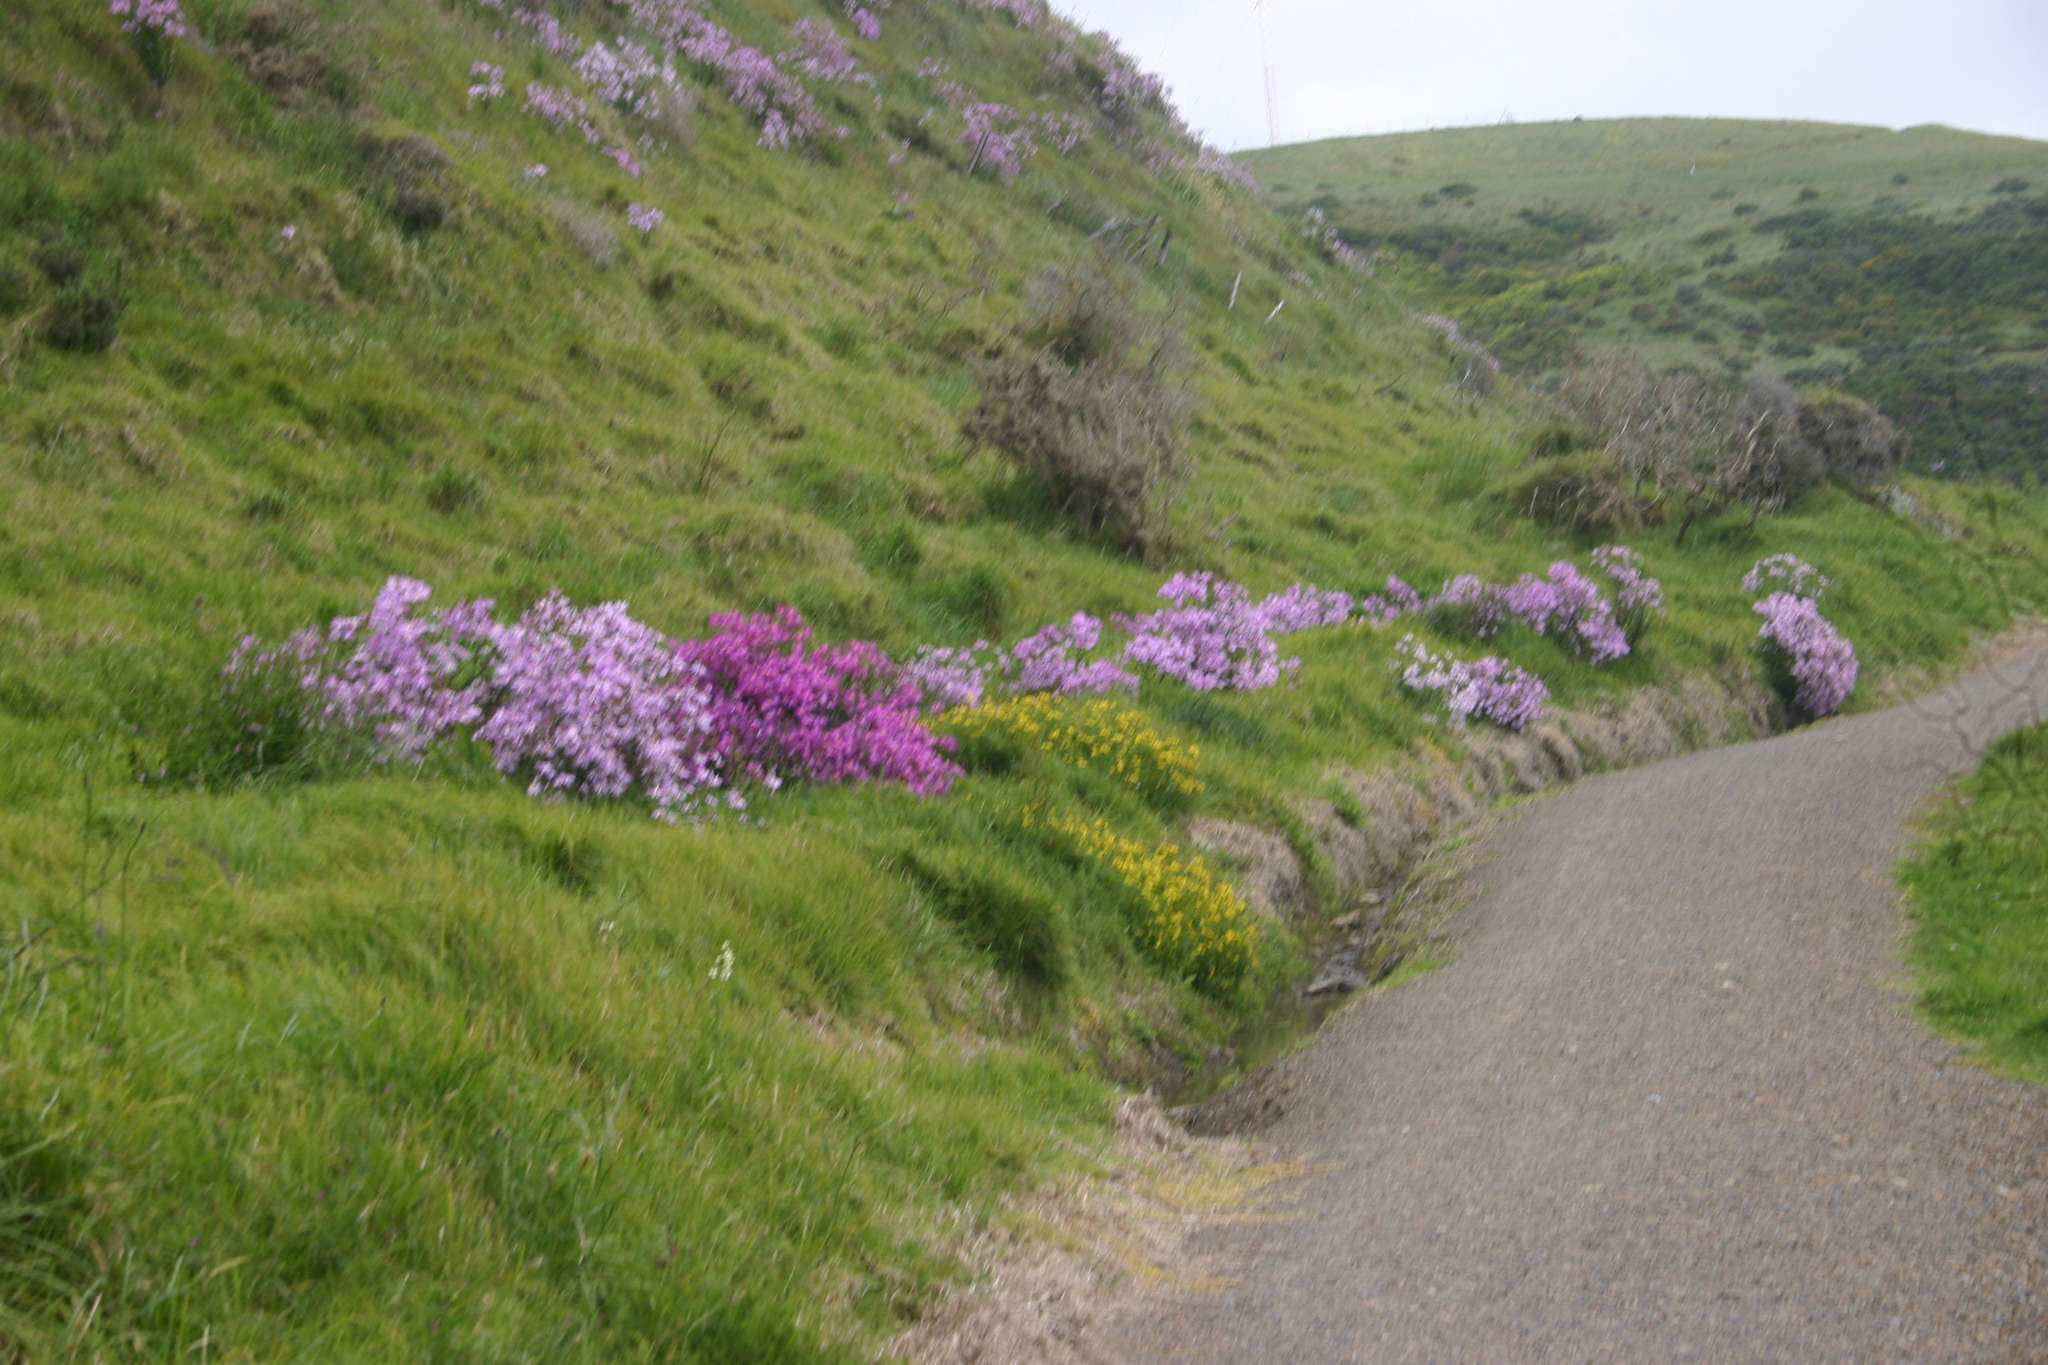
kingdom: Plantae
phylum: Tracheophyta
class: Magnoliopsida
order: Asterales
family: Asteraceae
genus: Senecio
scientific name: Senecio glastifolius
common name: Woad-leaved ragwort
